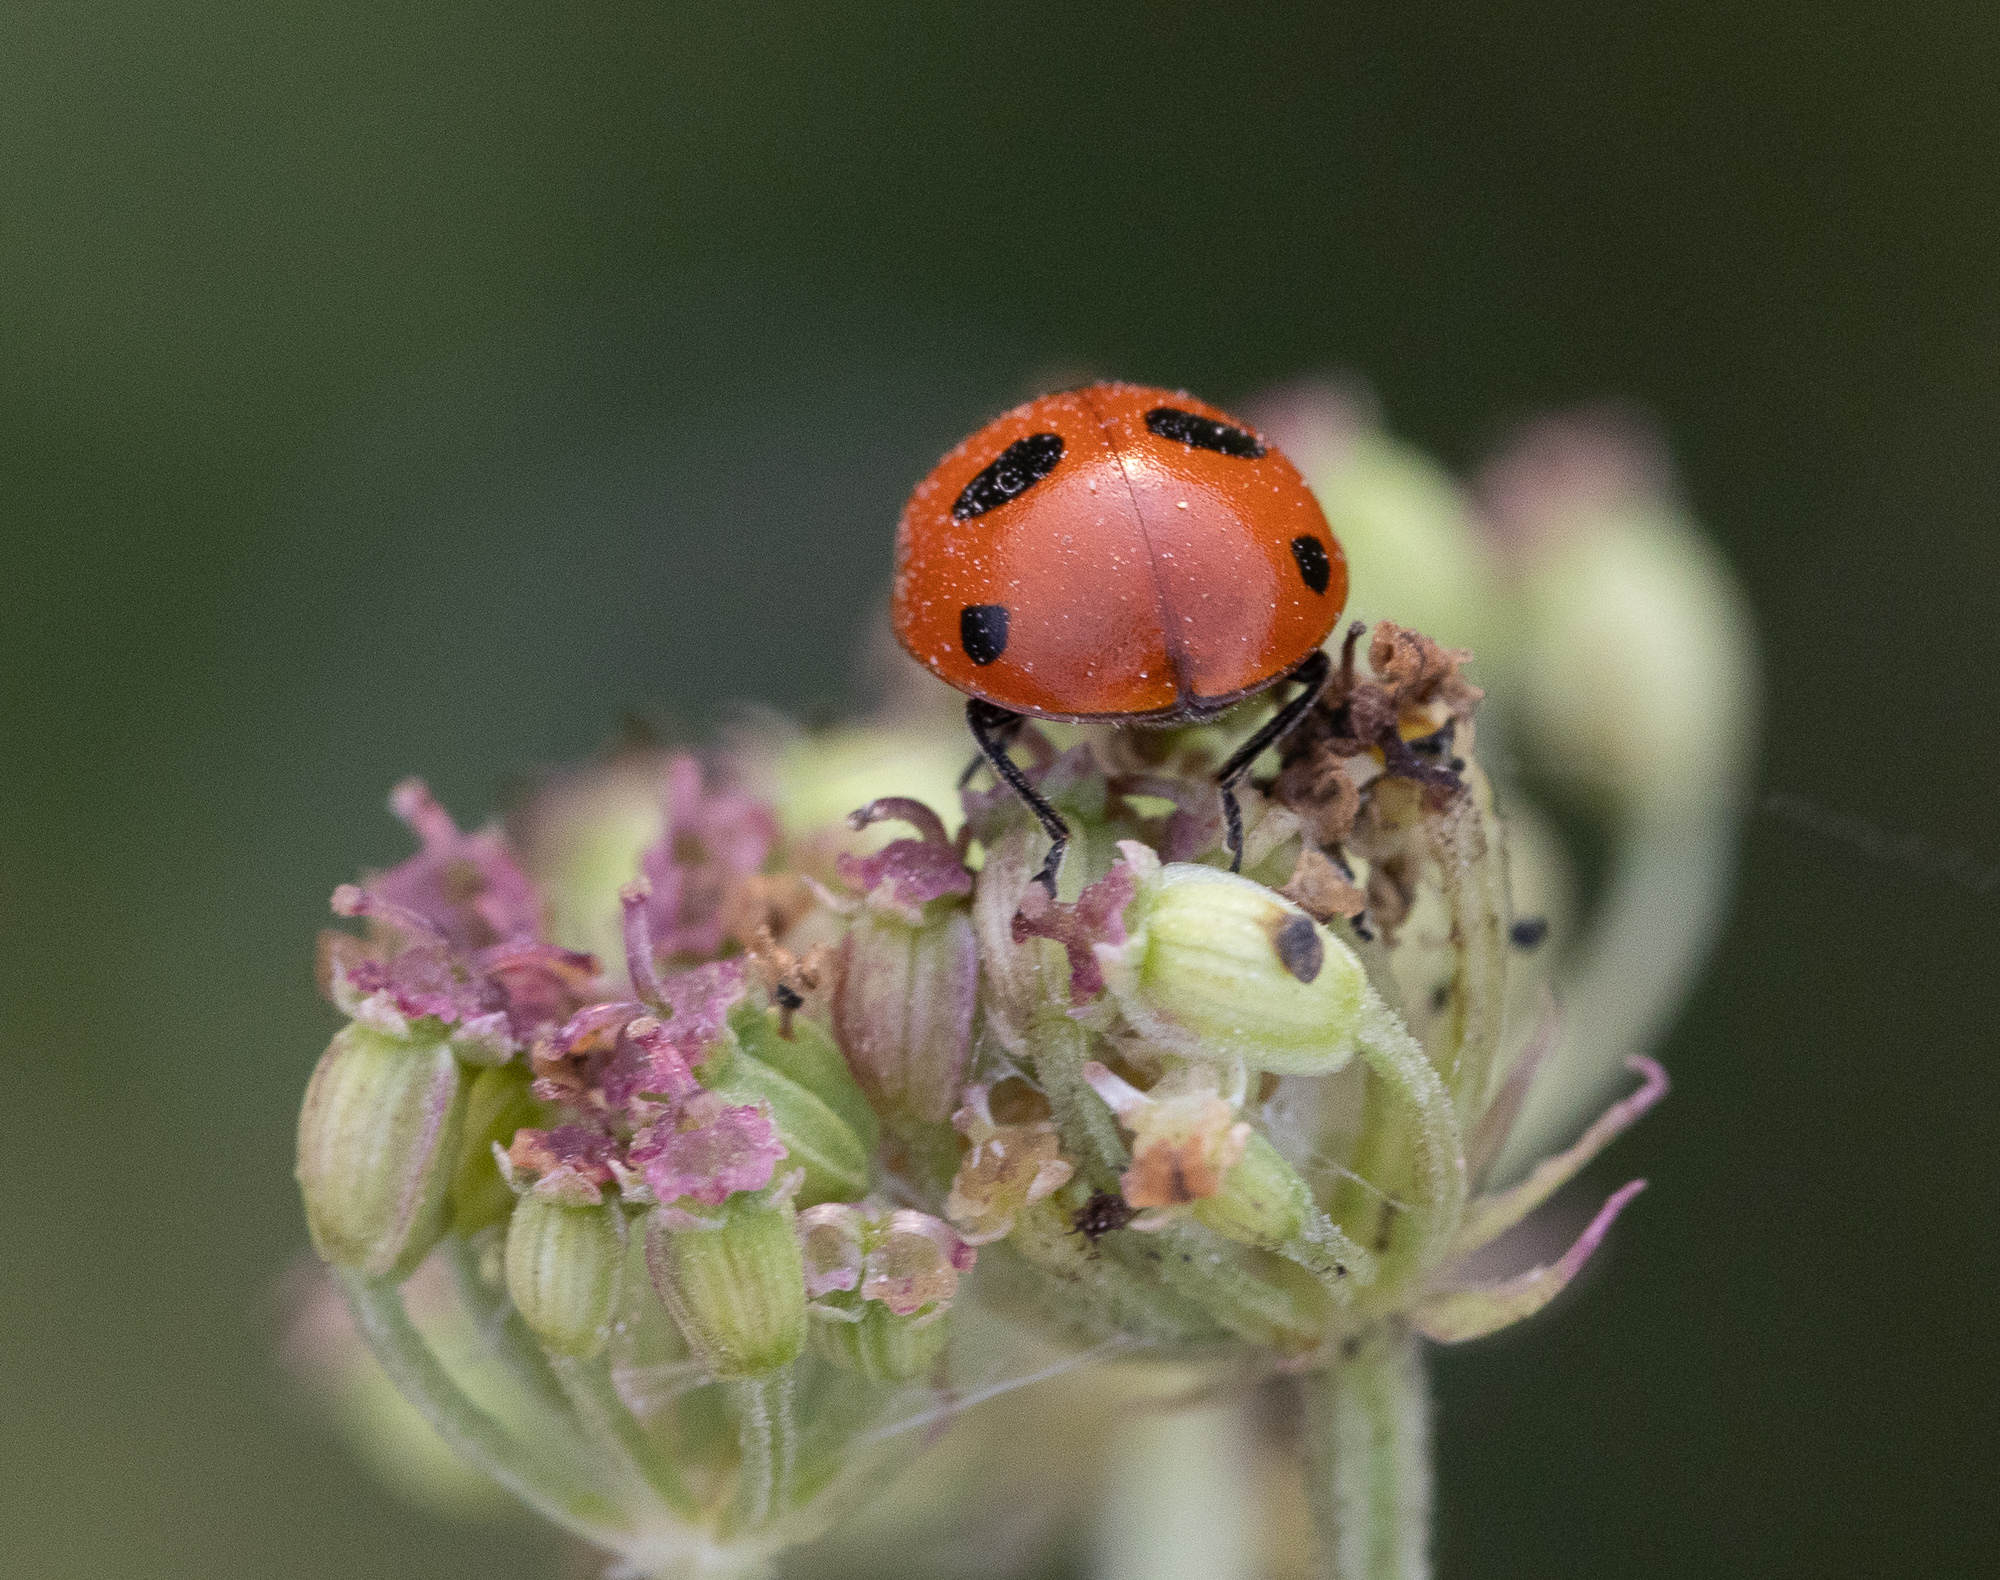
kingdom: Animalia
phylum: Arthropoda
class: Insecta
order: Coleoptera
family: Coccinellidae
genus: Coccinella
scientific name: Coccinella quinquepunctata
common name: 5-spot ladybird
